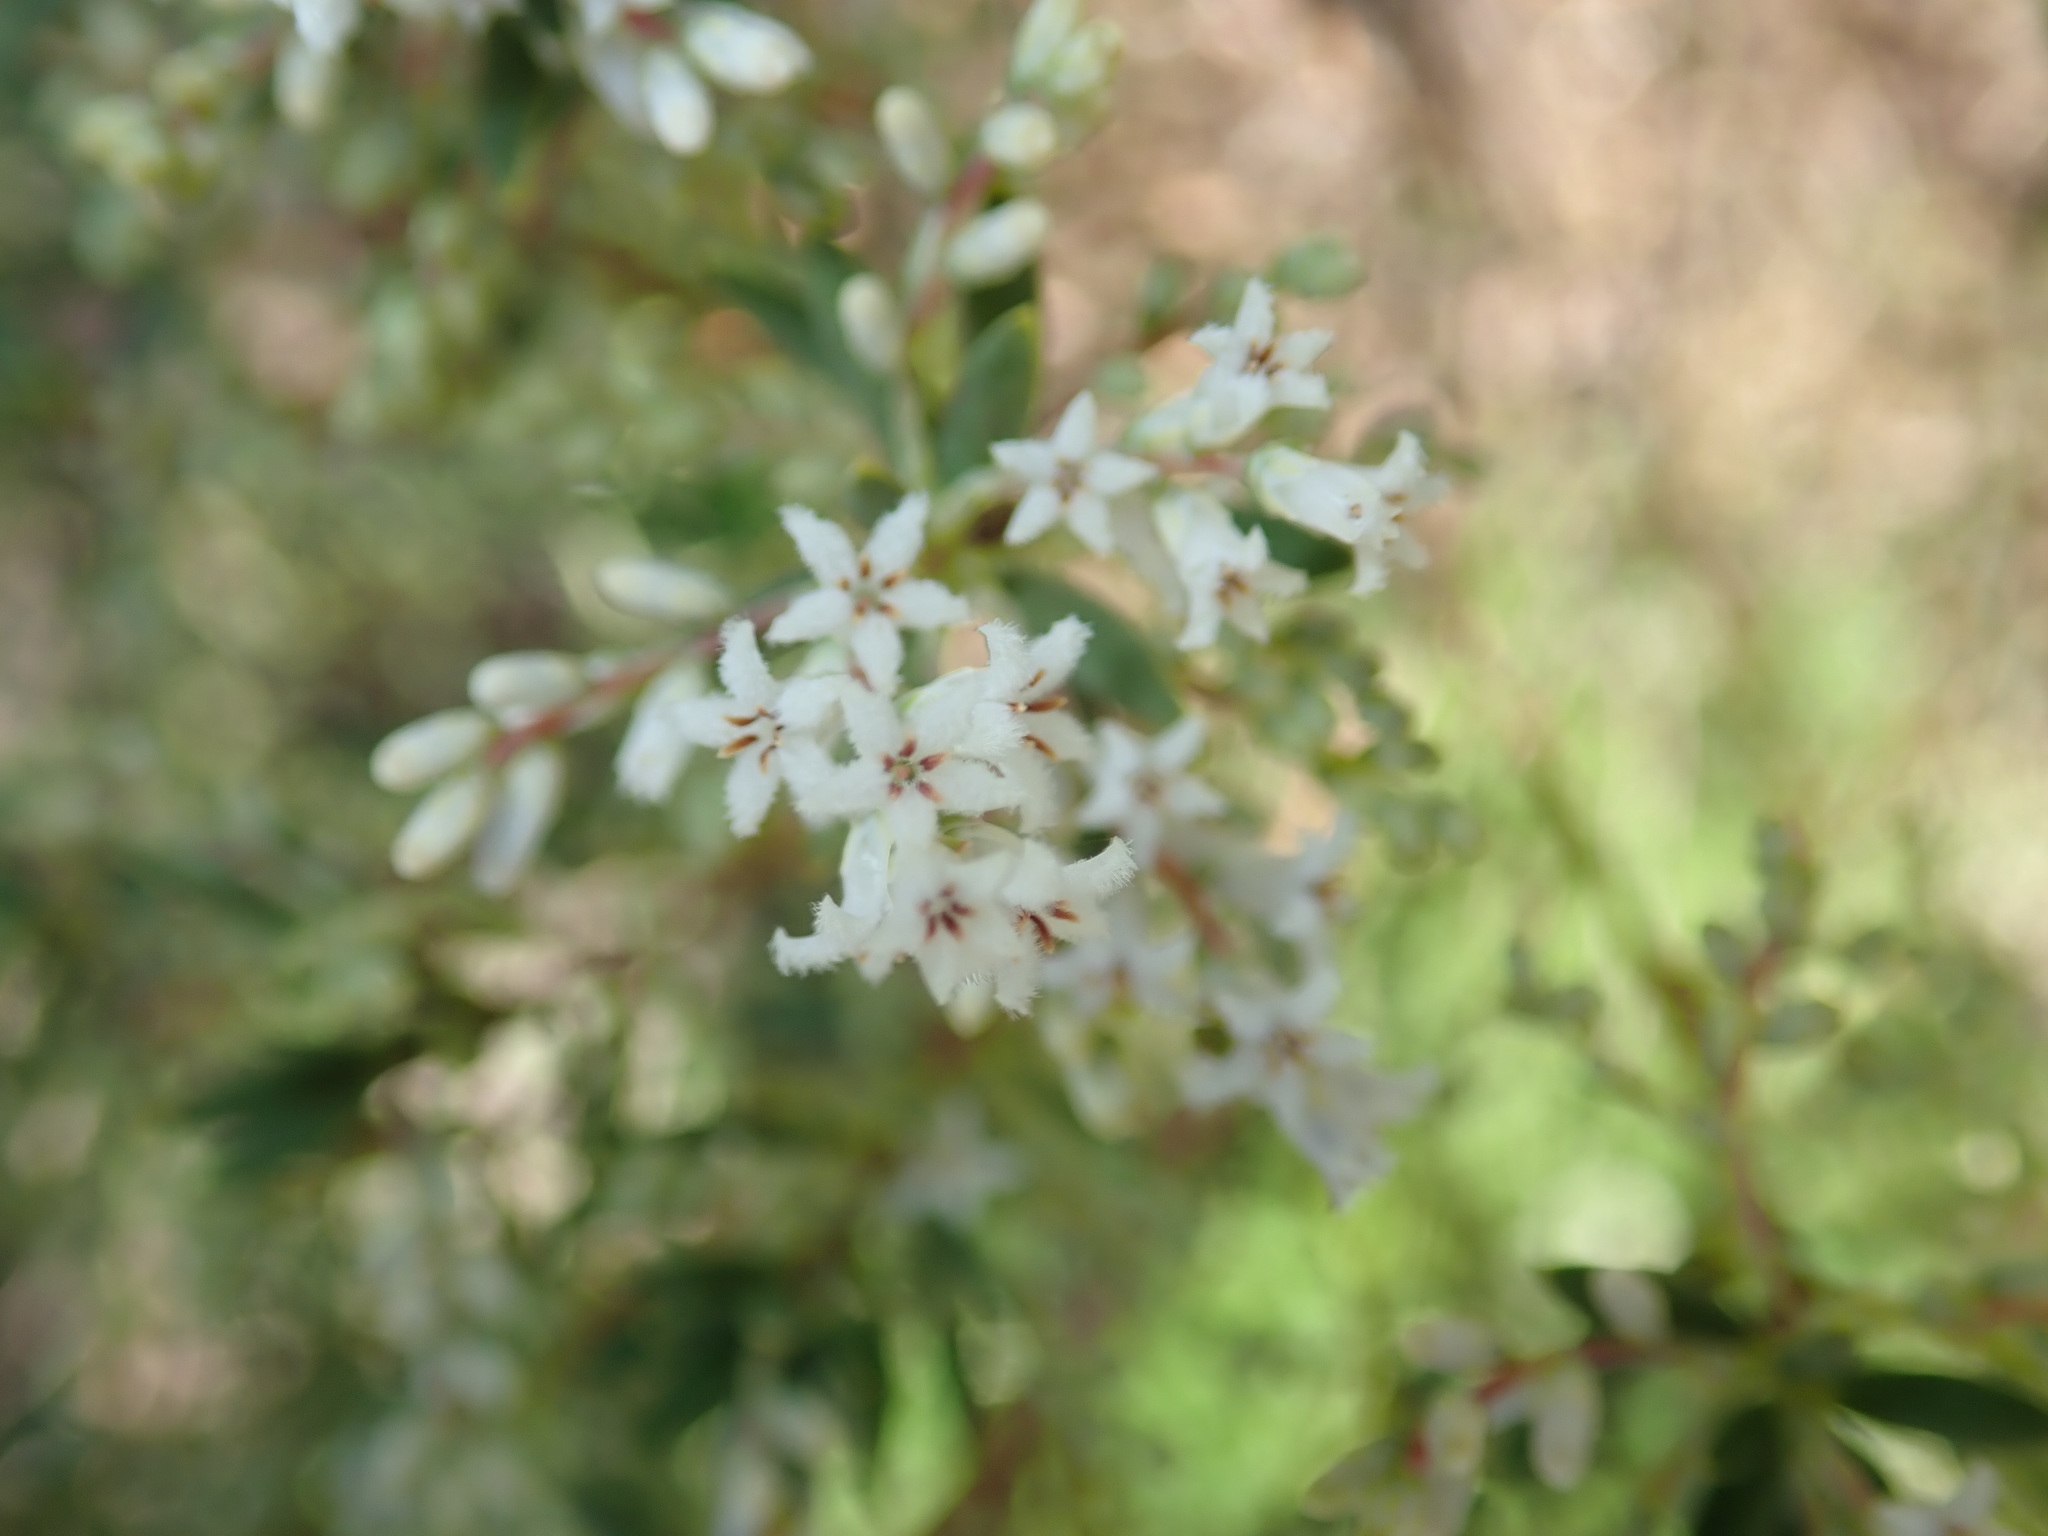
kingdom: Plantae
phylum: Tracheophyta
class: Magnoliopsida
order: Ericales
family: Ericaceae
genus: Leptecophylla
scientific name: Leptecophylla parvifolia
